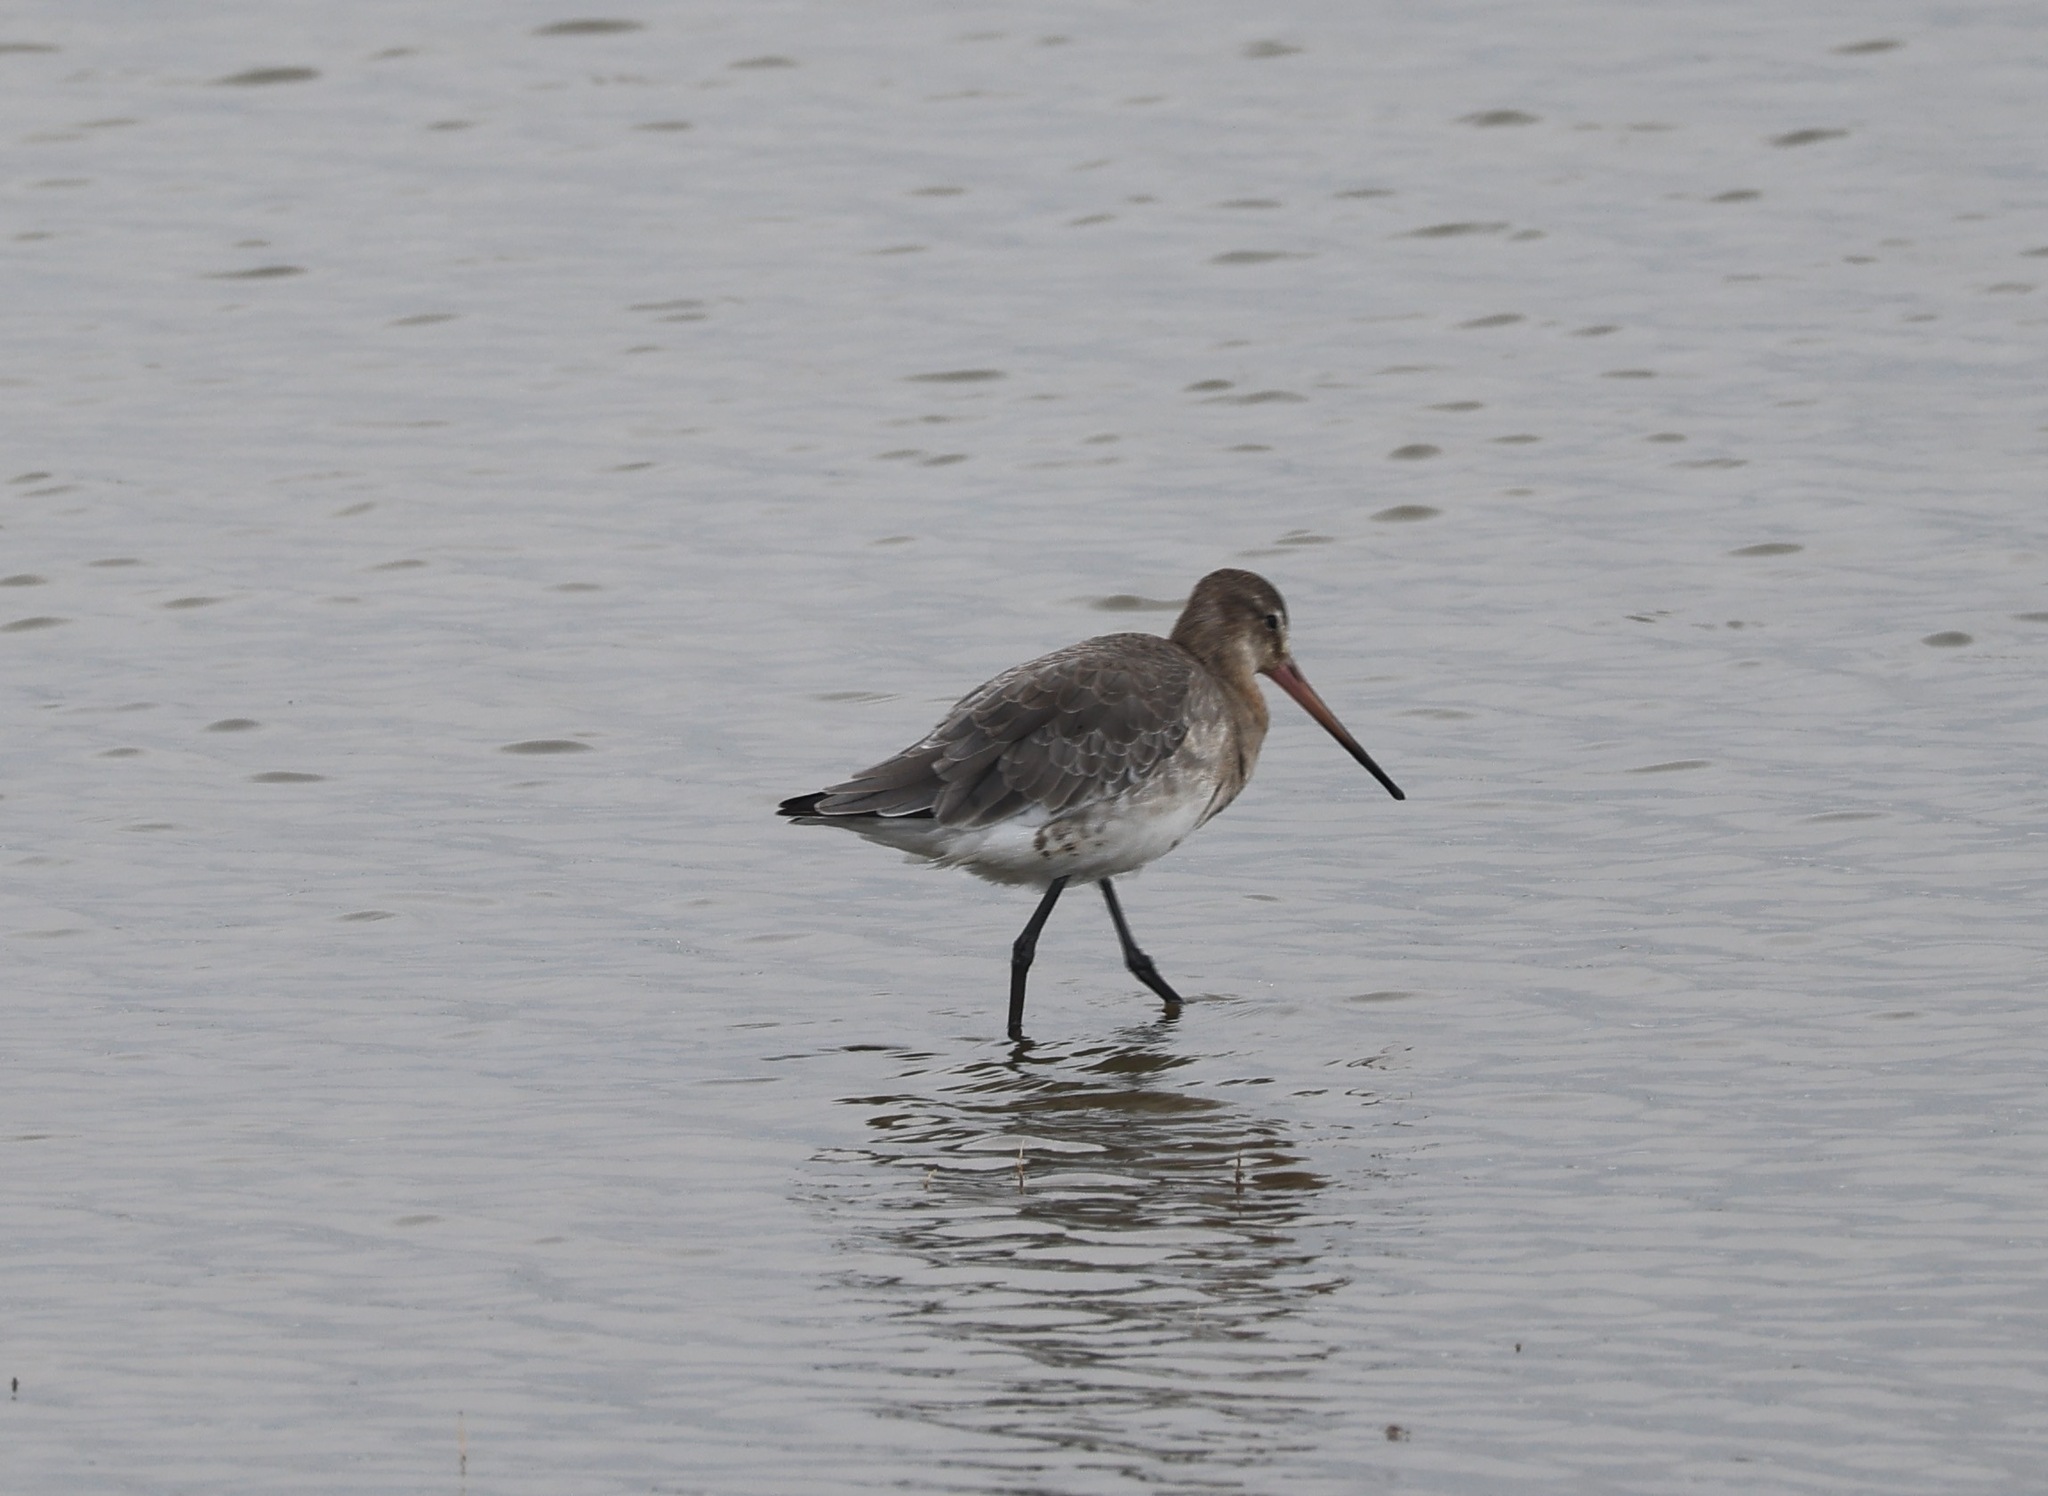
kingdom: Animalia
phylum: Chordata
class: Aves
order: Charadriiformes
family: Scolopacidae
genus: Limosa
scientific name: Limosa limosa
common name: Black-tailed godwit
